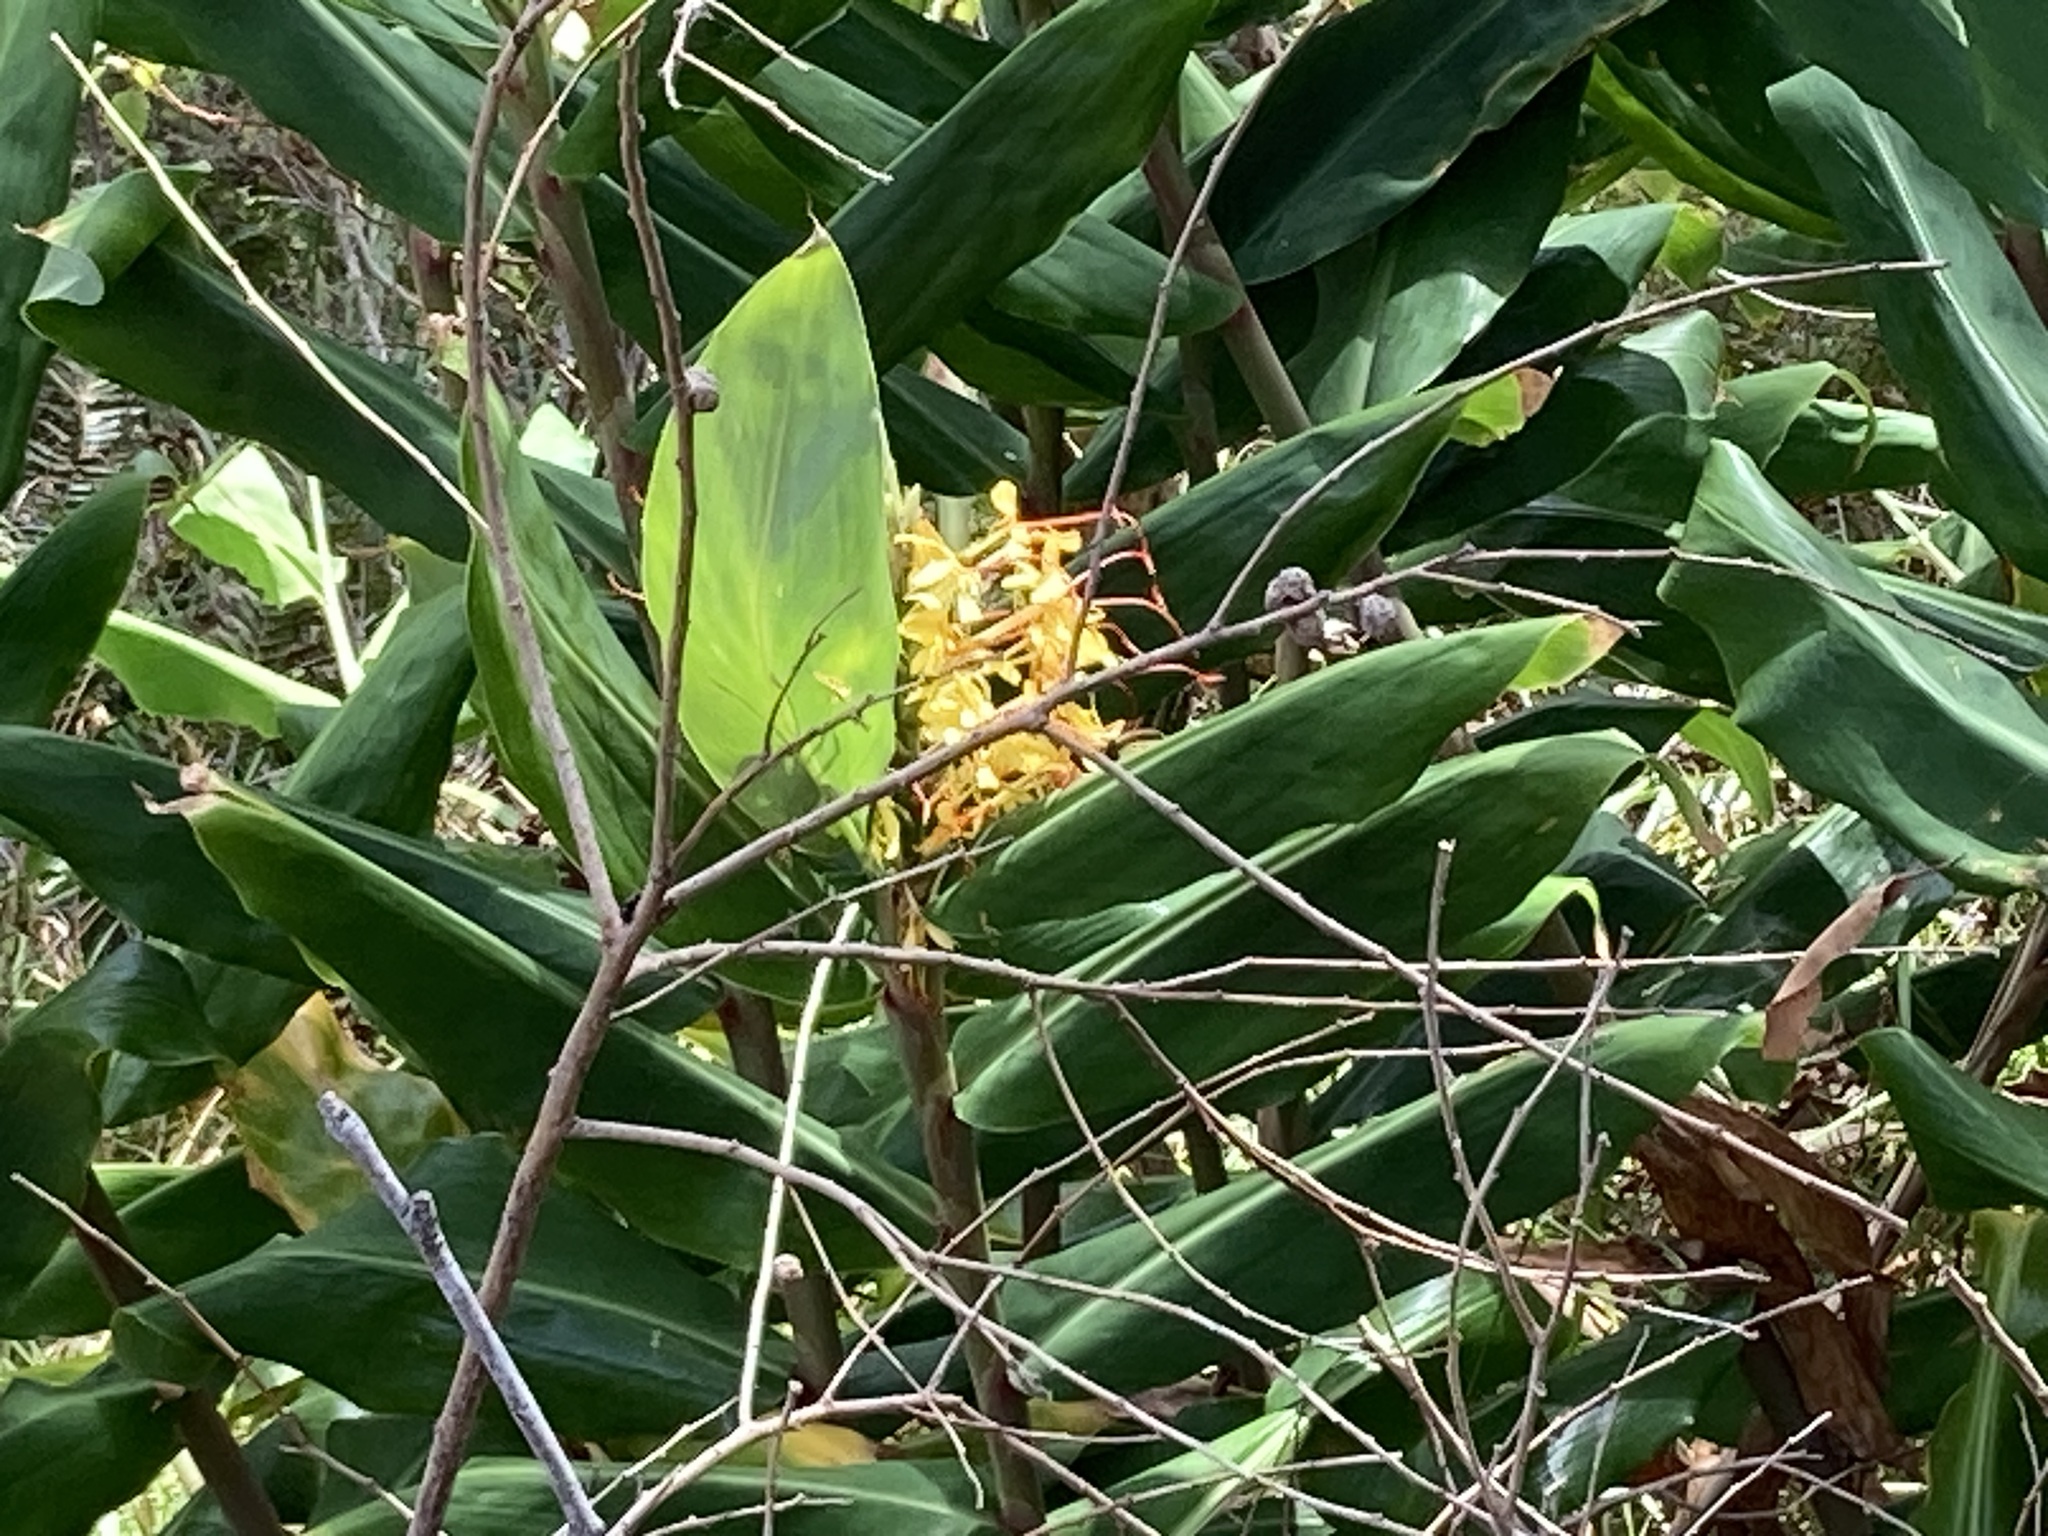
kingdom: Plantae
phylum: Tracheophyta
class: Liliopsida
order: Zingiberales
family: Zingiberaceae
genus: Hedychium
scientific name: Hedychium gardnerianum
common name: Himalayan ginger
